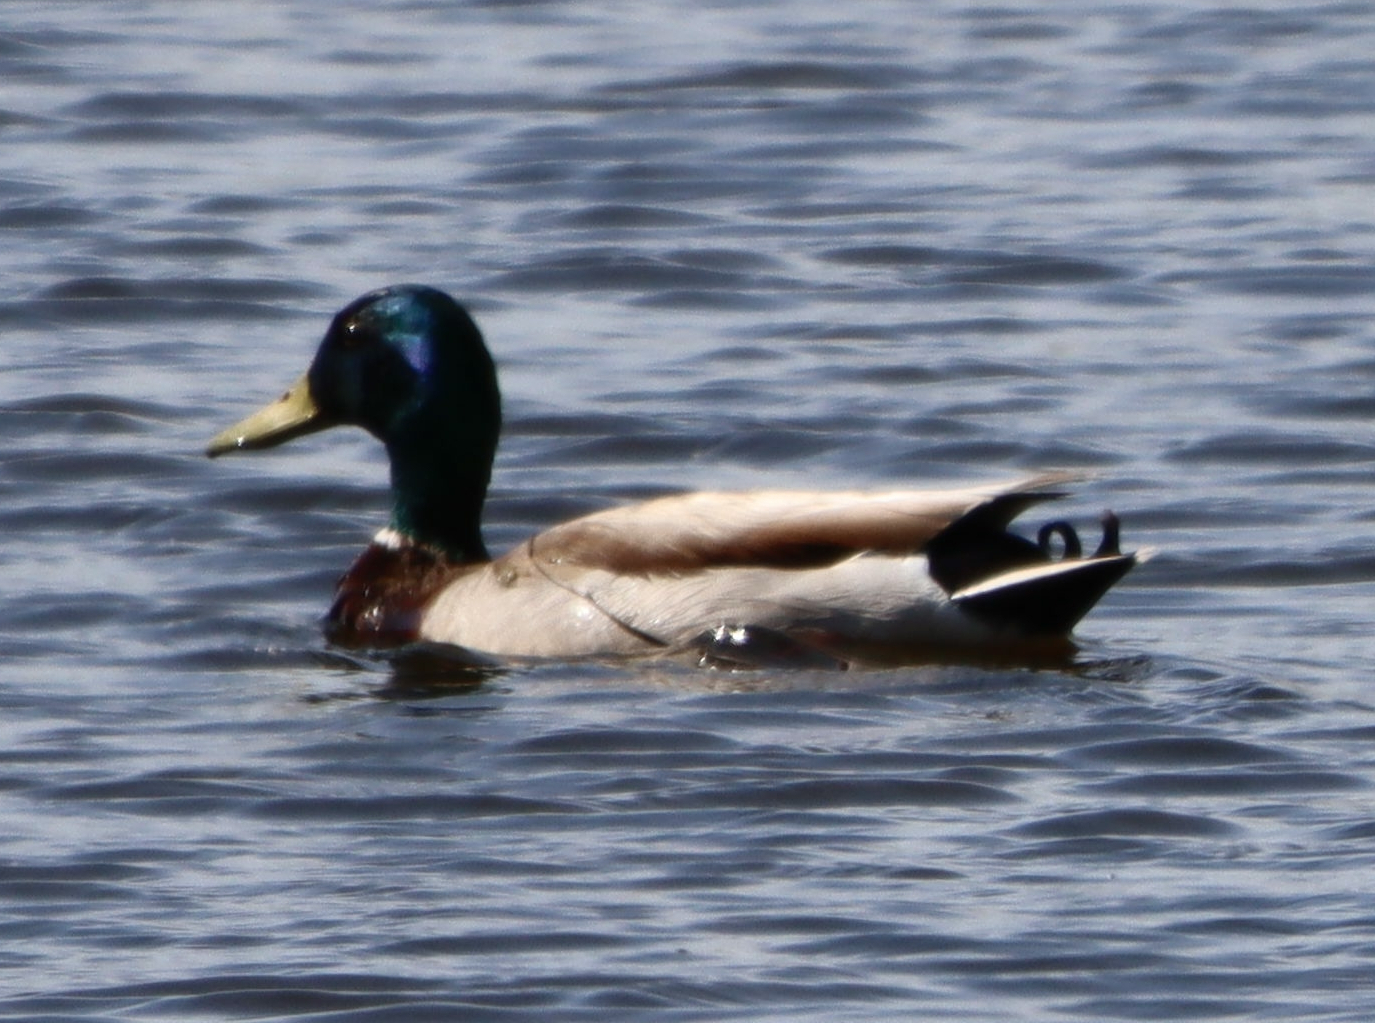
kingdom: Animalia
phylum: Chordata
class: Aves
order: Anseriformes
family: Anatidae
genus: Anas
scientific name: Anas platyrhynchos
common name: Mallard
